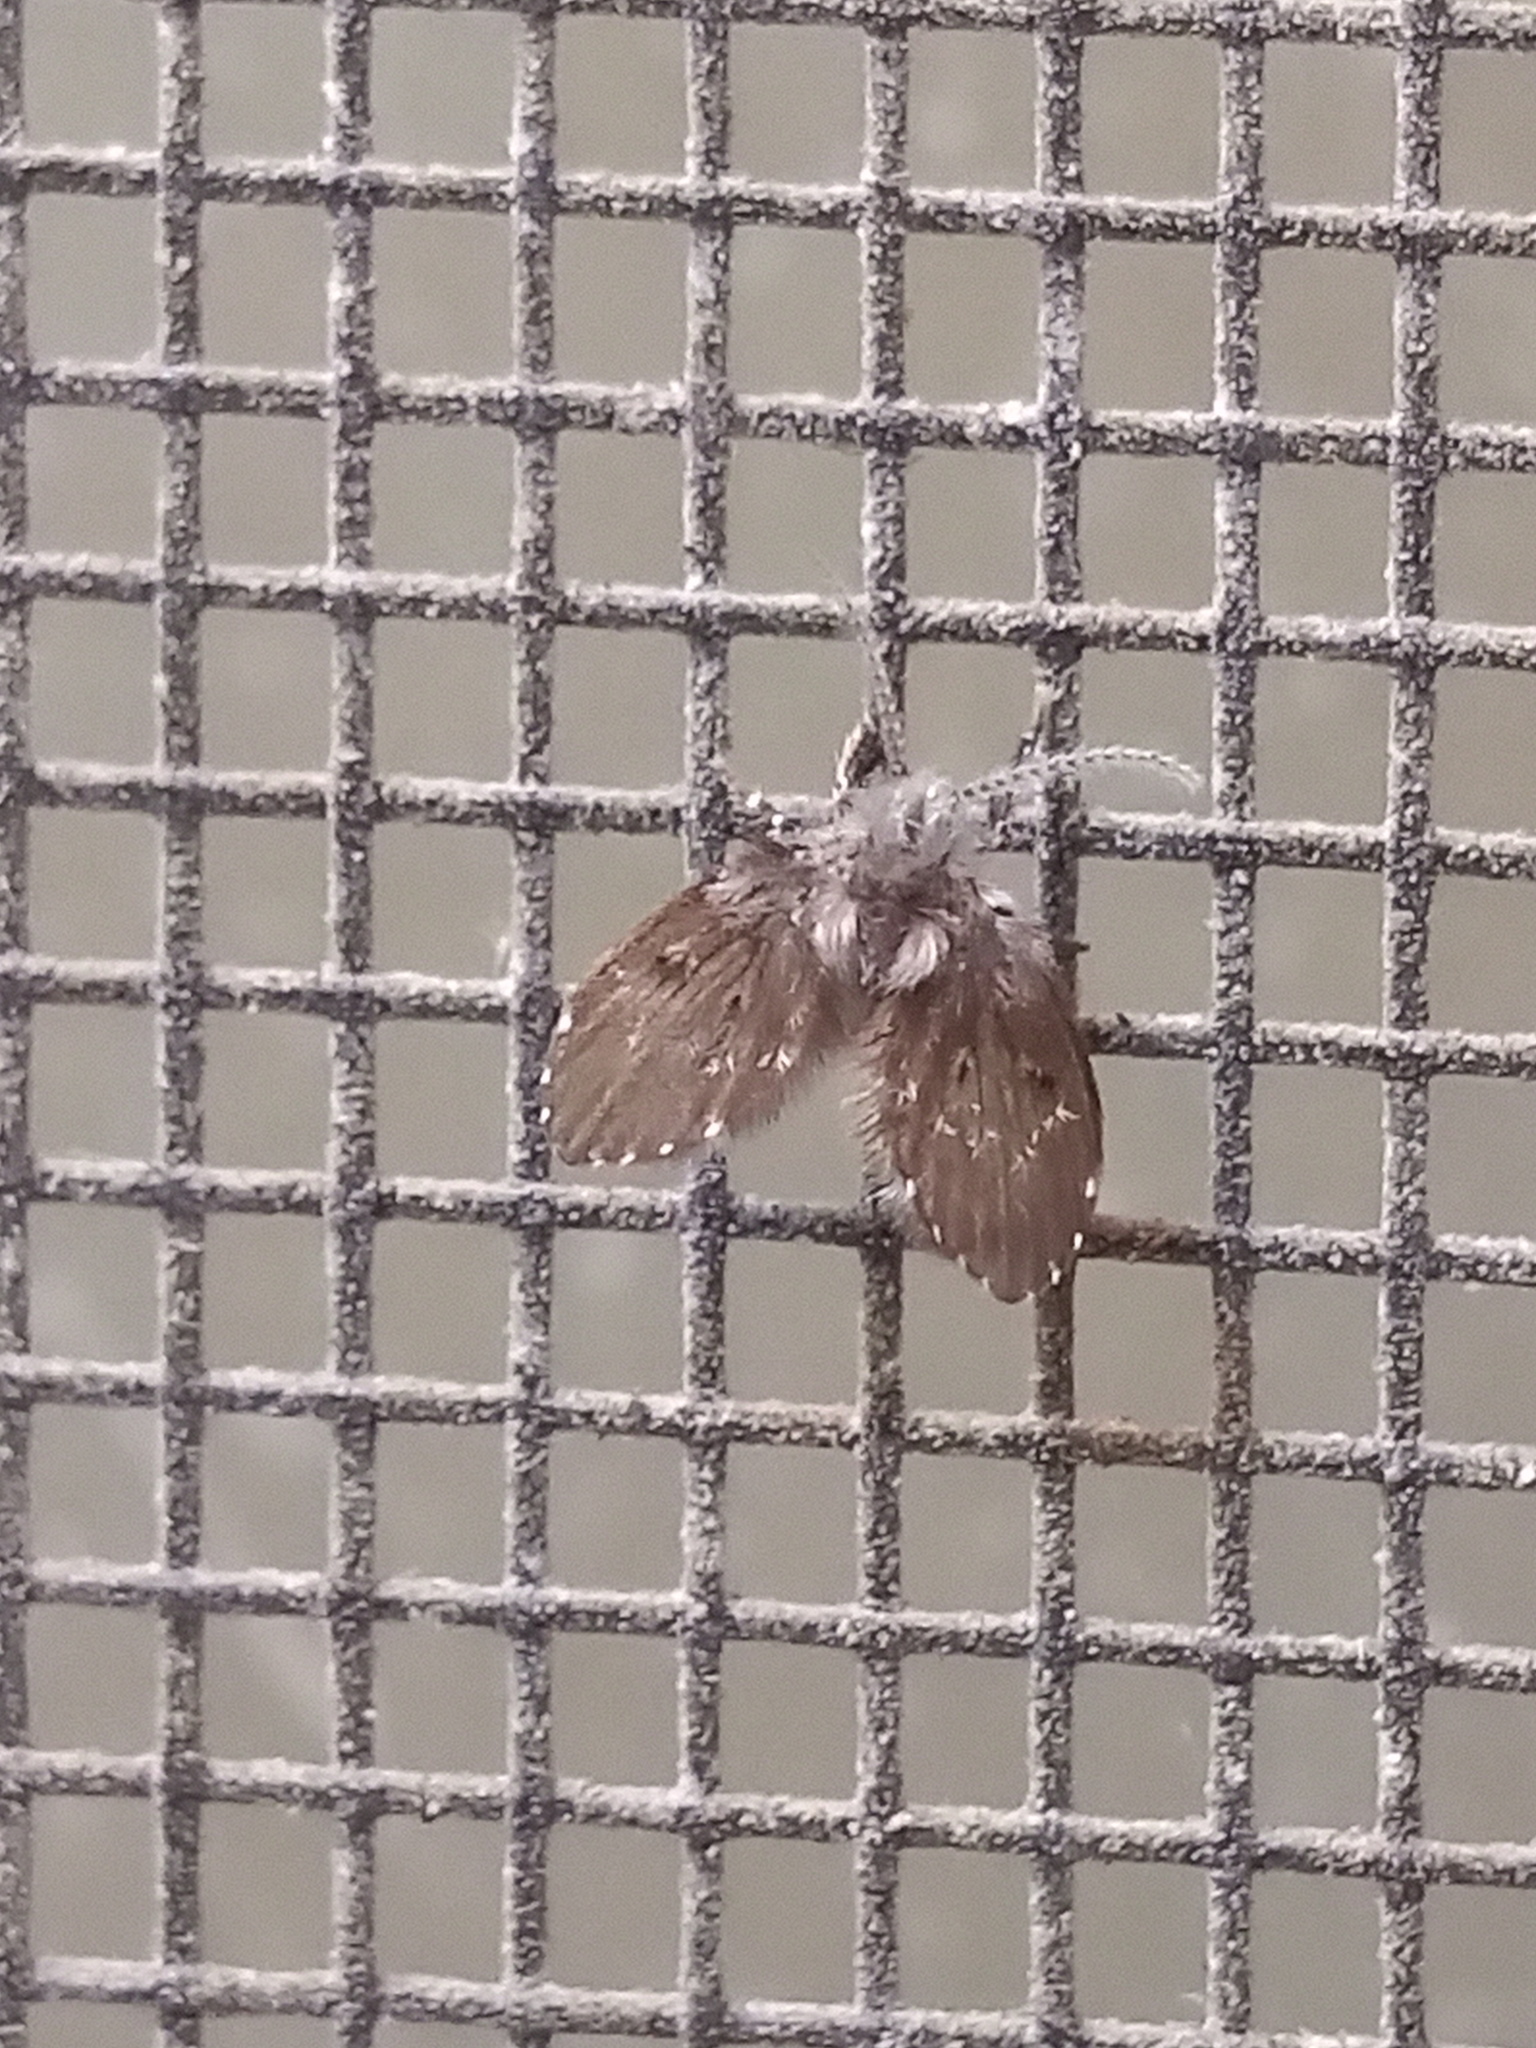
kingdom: Animalia
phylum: Arthropoda
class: Insecta
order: Diptera
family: Psychodidae
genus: Clogmia
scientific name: Clogmia albipunctatus
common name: White-spotted moth fly
